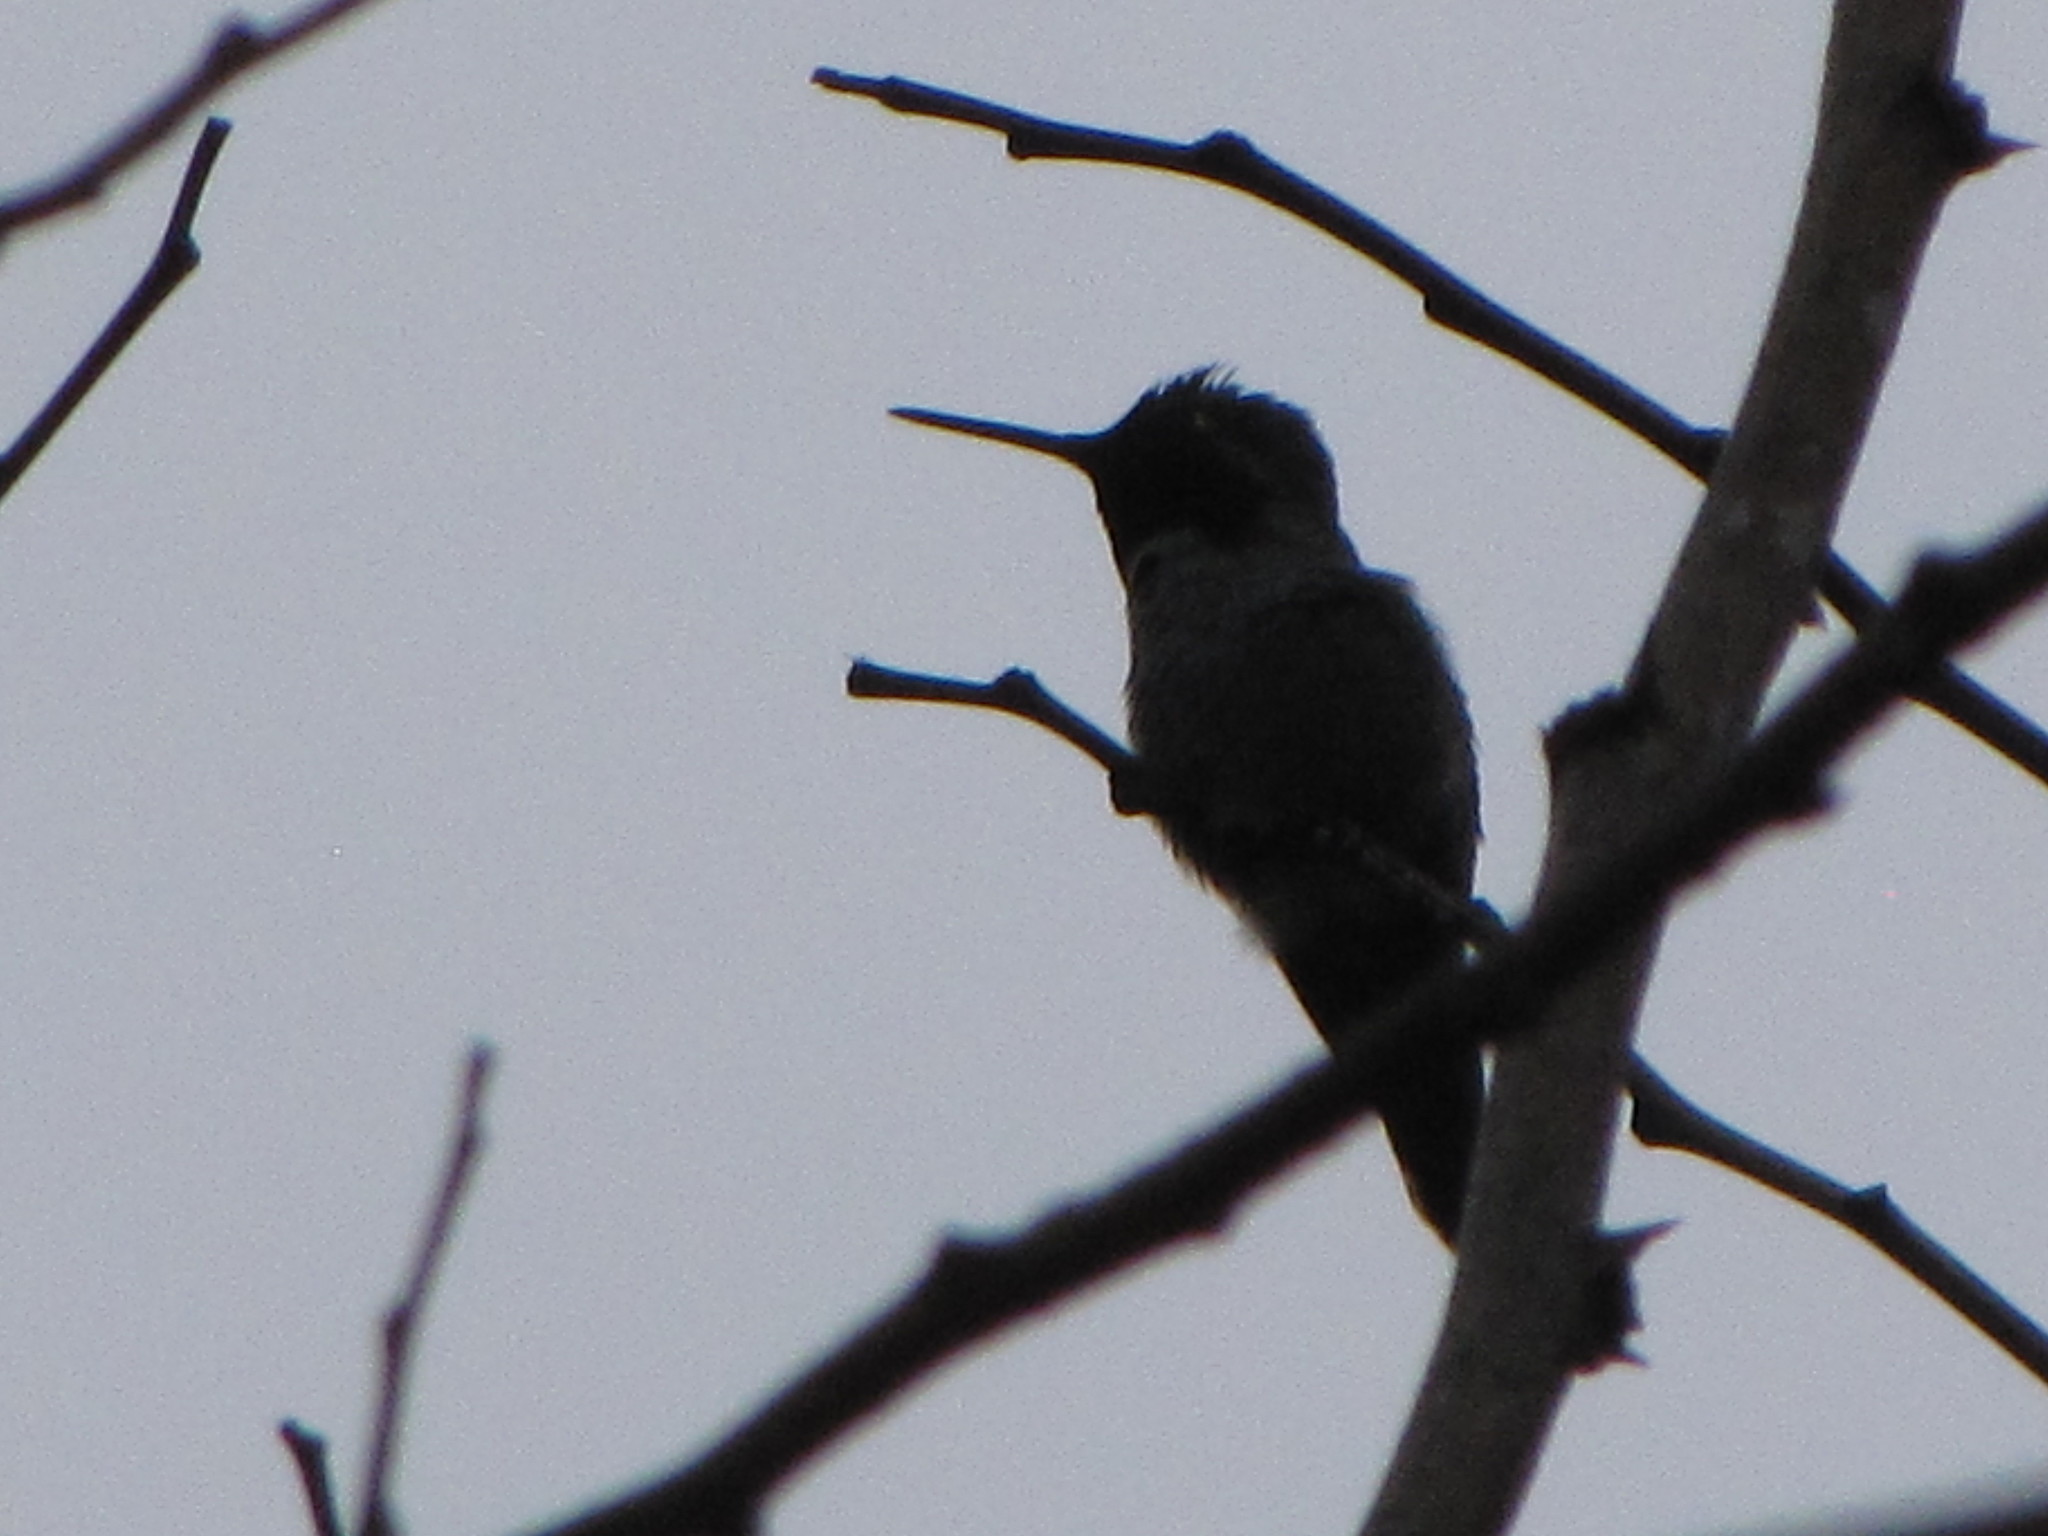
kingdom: Animalia
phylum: Chordata
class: Aves
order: Apodiformes
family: Trochilidae
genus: Calypte
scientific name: Calypte anna
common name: Anna's hummingbird
